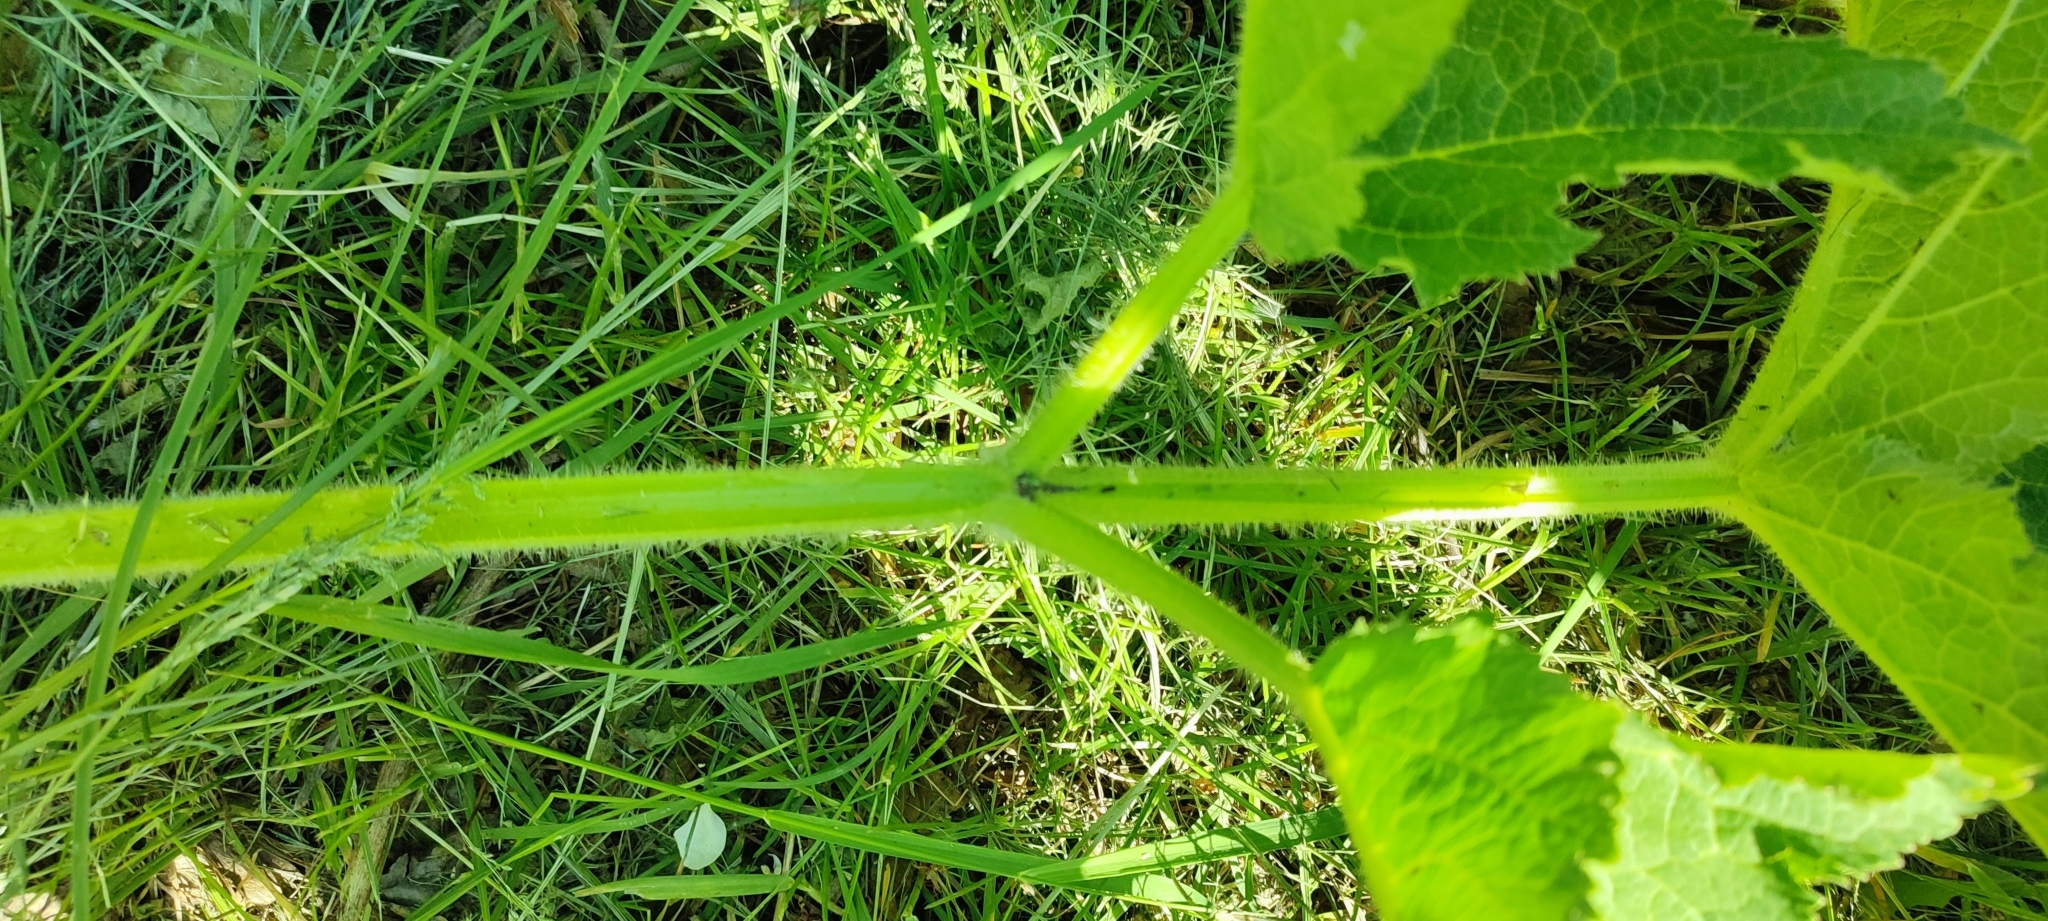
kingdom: Plantae
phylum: Tracheophyta
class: Magnoliopsida
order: Apiales
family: Apiaceae
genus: Heracleum
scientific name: Heracleum sphondylium
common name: Hogweed
